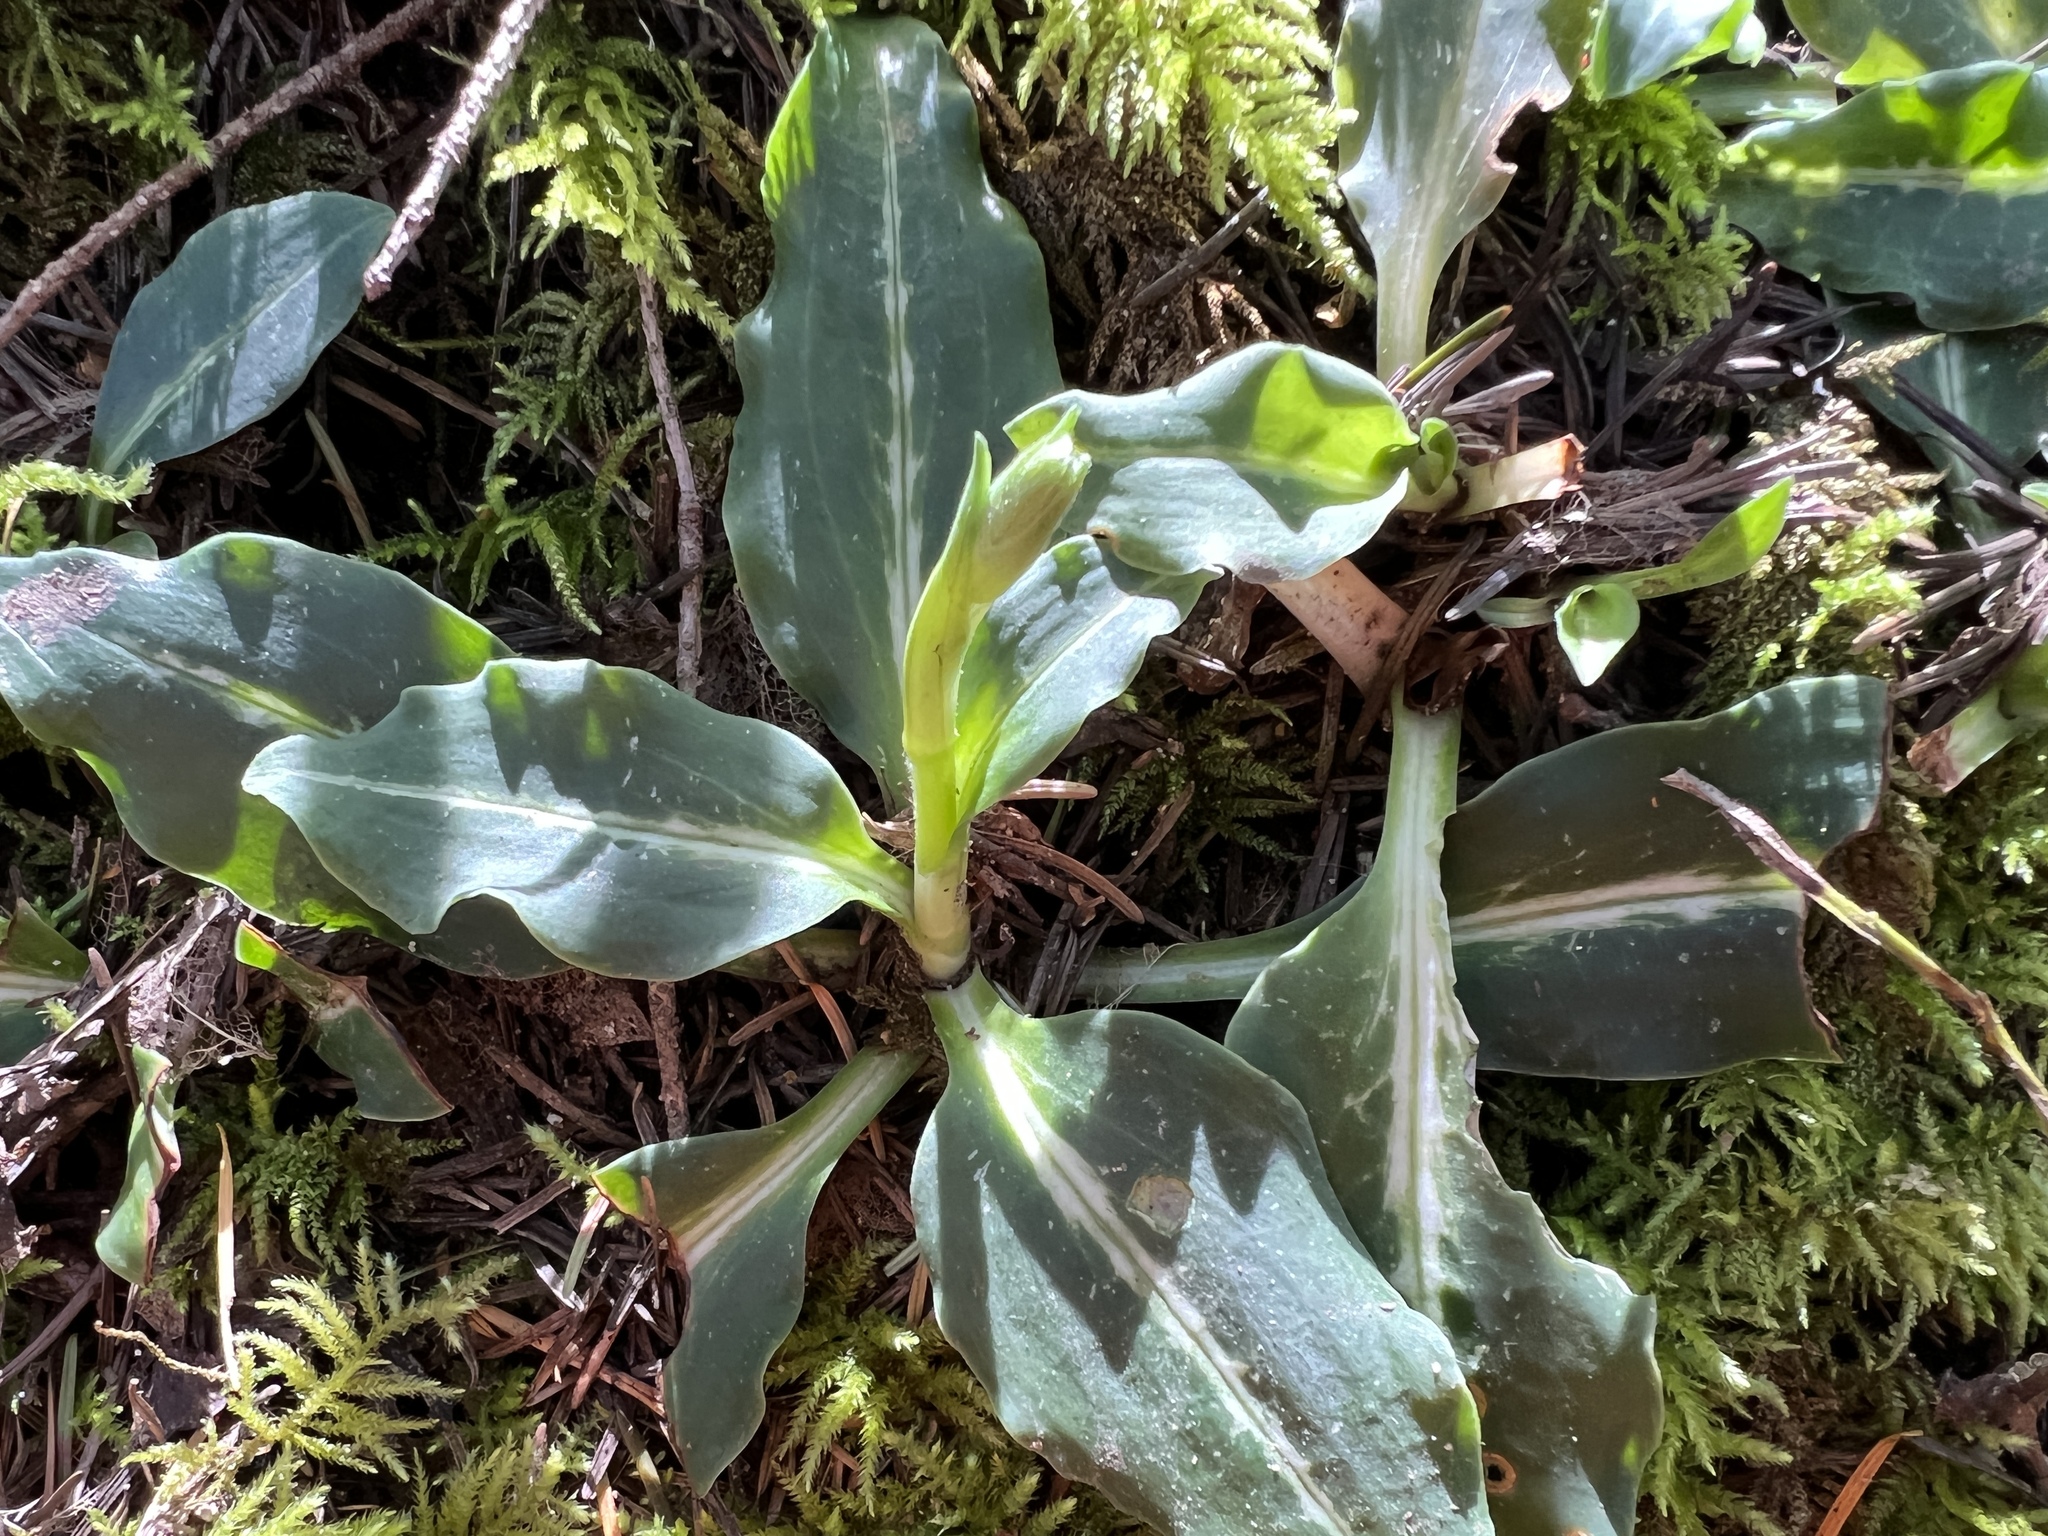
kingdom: Plantae
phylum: Tracheophyta
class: Liliopsida
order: Asparagales
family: Orchidaceae
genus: Goodyera
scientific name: Goodyera oblongifolia
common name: Giant rattlesnake-plantain
